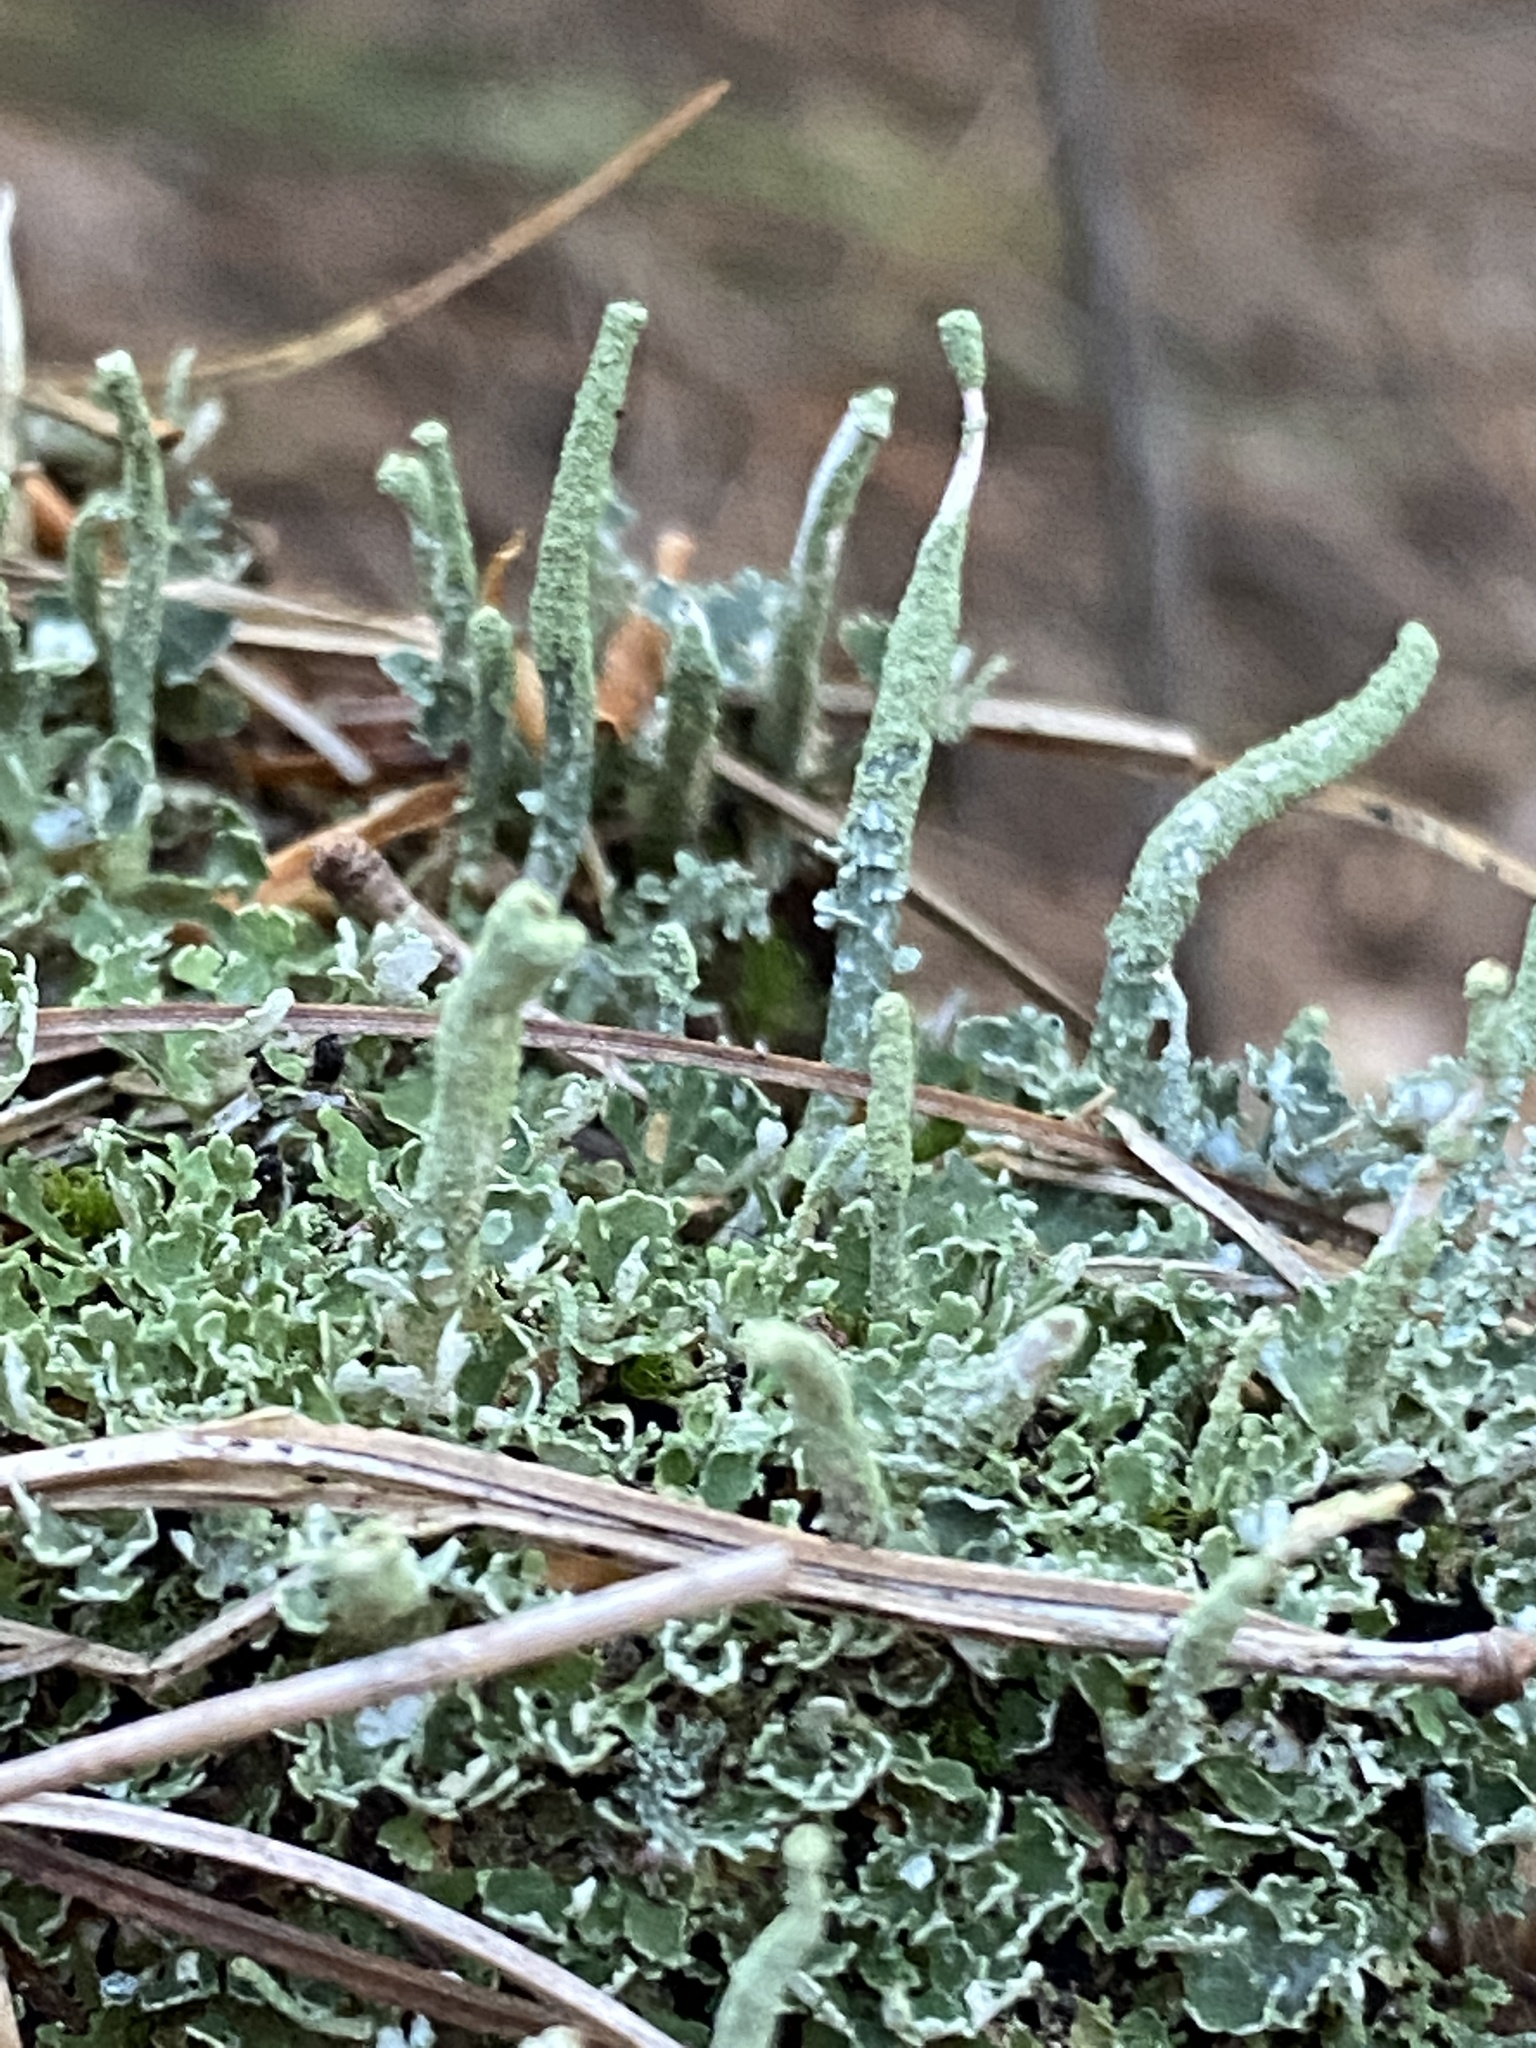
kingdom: Fungi
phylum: Ascomycota
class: Lecanoromycetes
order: Lecanorales
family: Cladoniaceae
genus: Cladonia
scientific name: Cladonia ochrochlora
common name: Smooth-footed powderhorn
